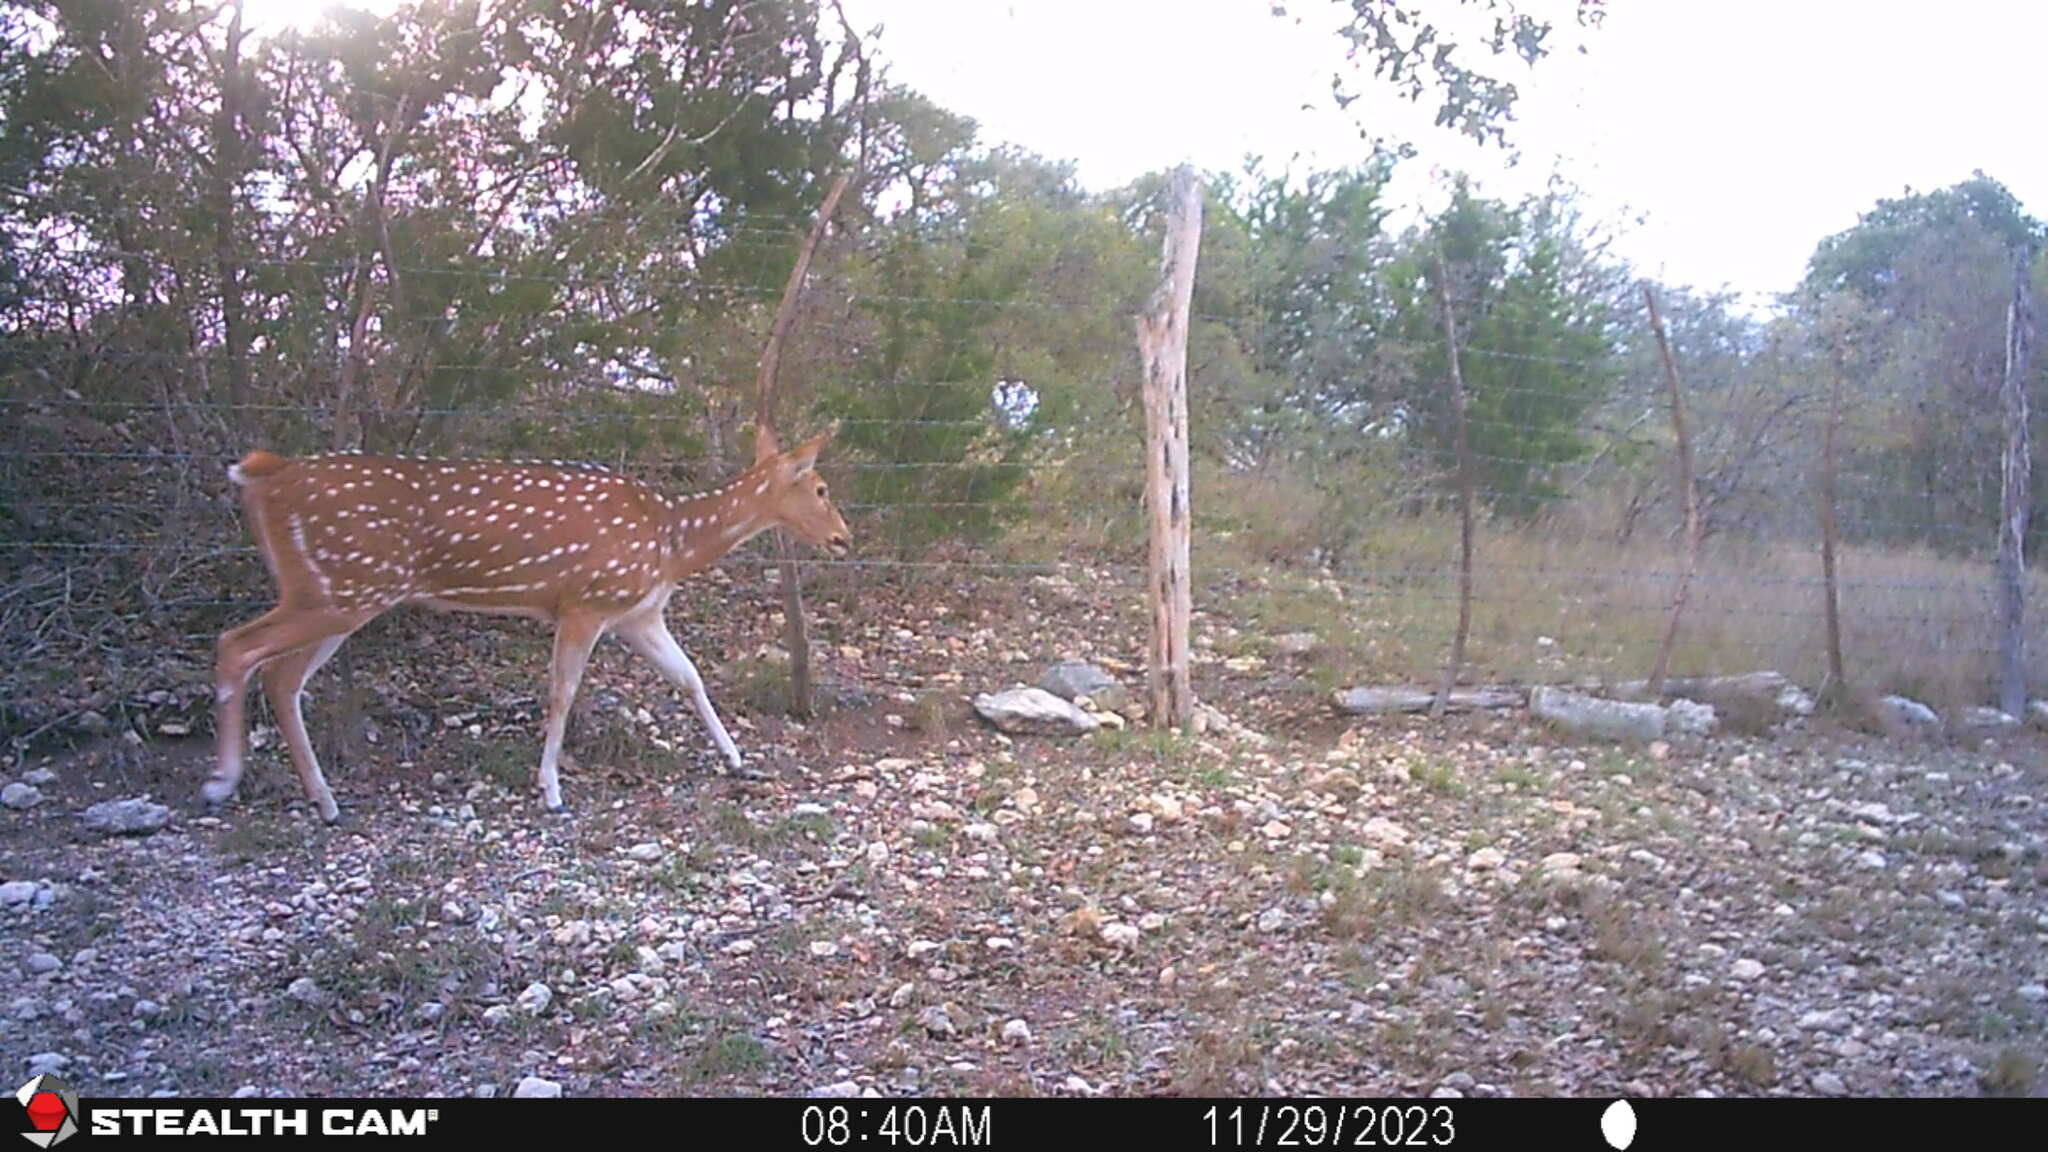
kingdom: Animalia
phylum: Chordata
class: Mammalia
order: Artiodactyla
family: Cervidae
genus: Axis
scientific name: Axis axis
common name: Chital
